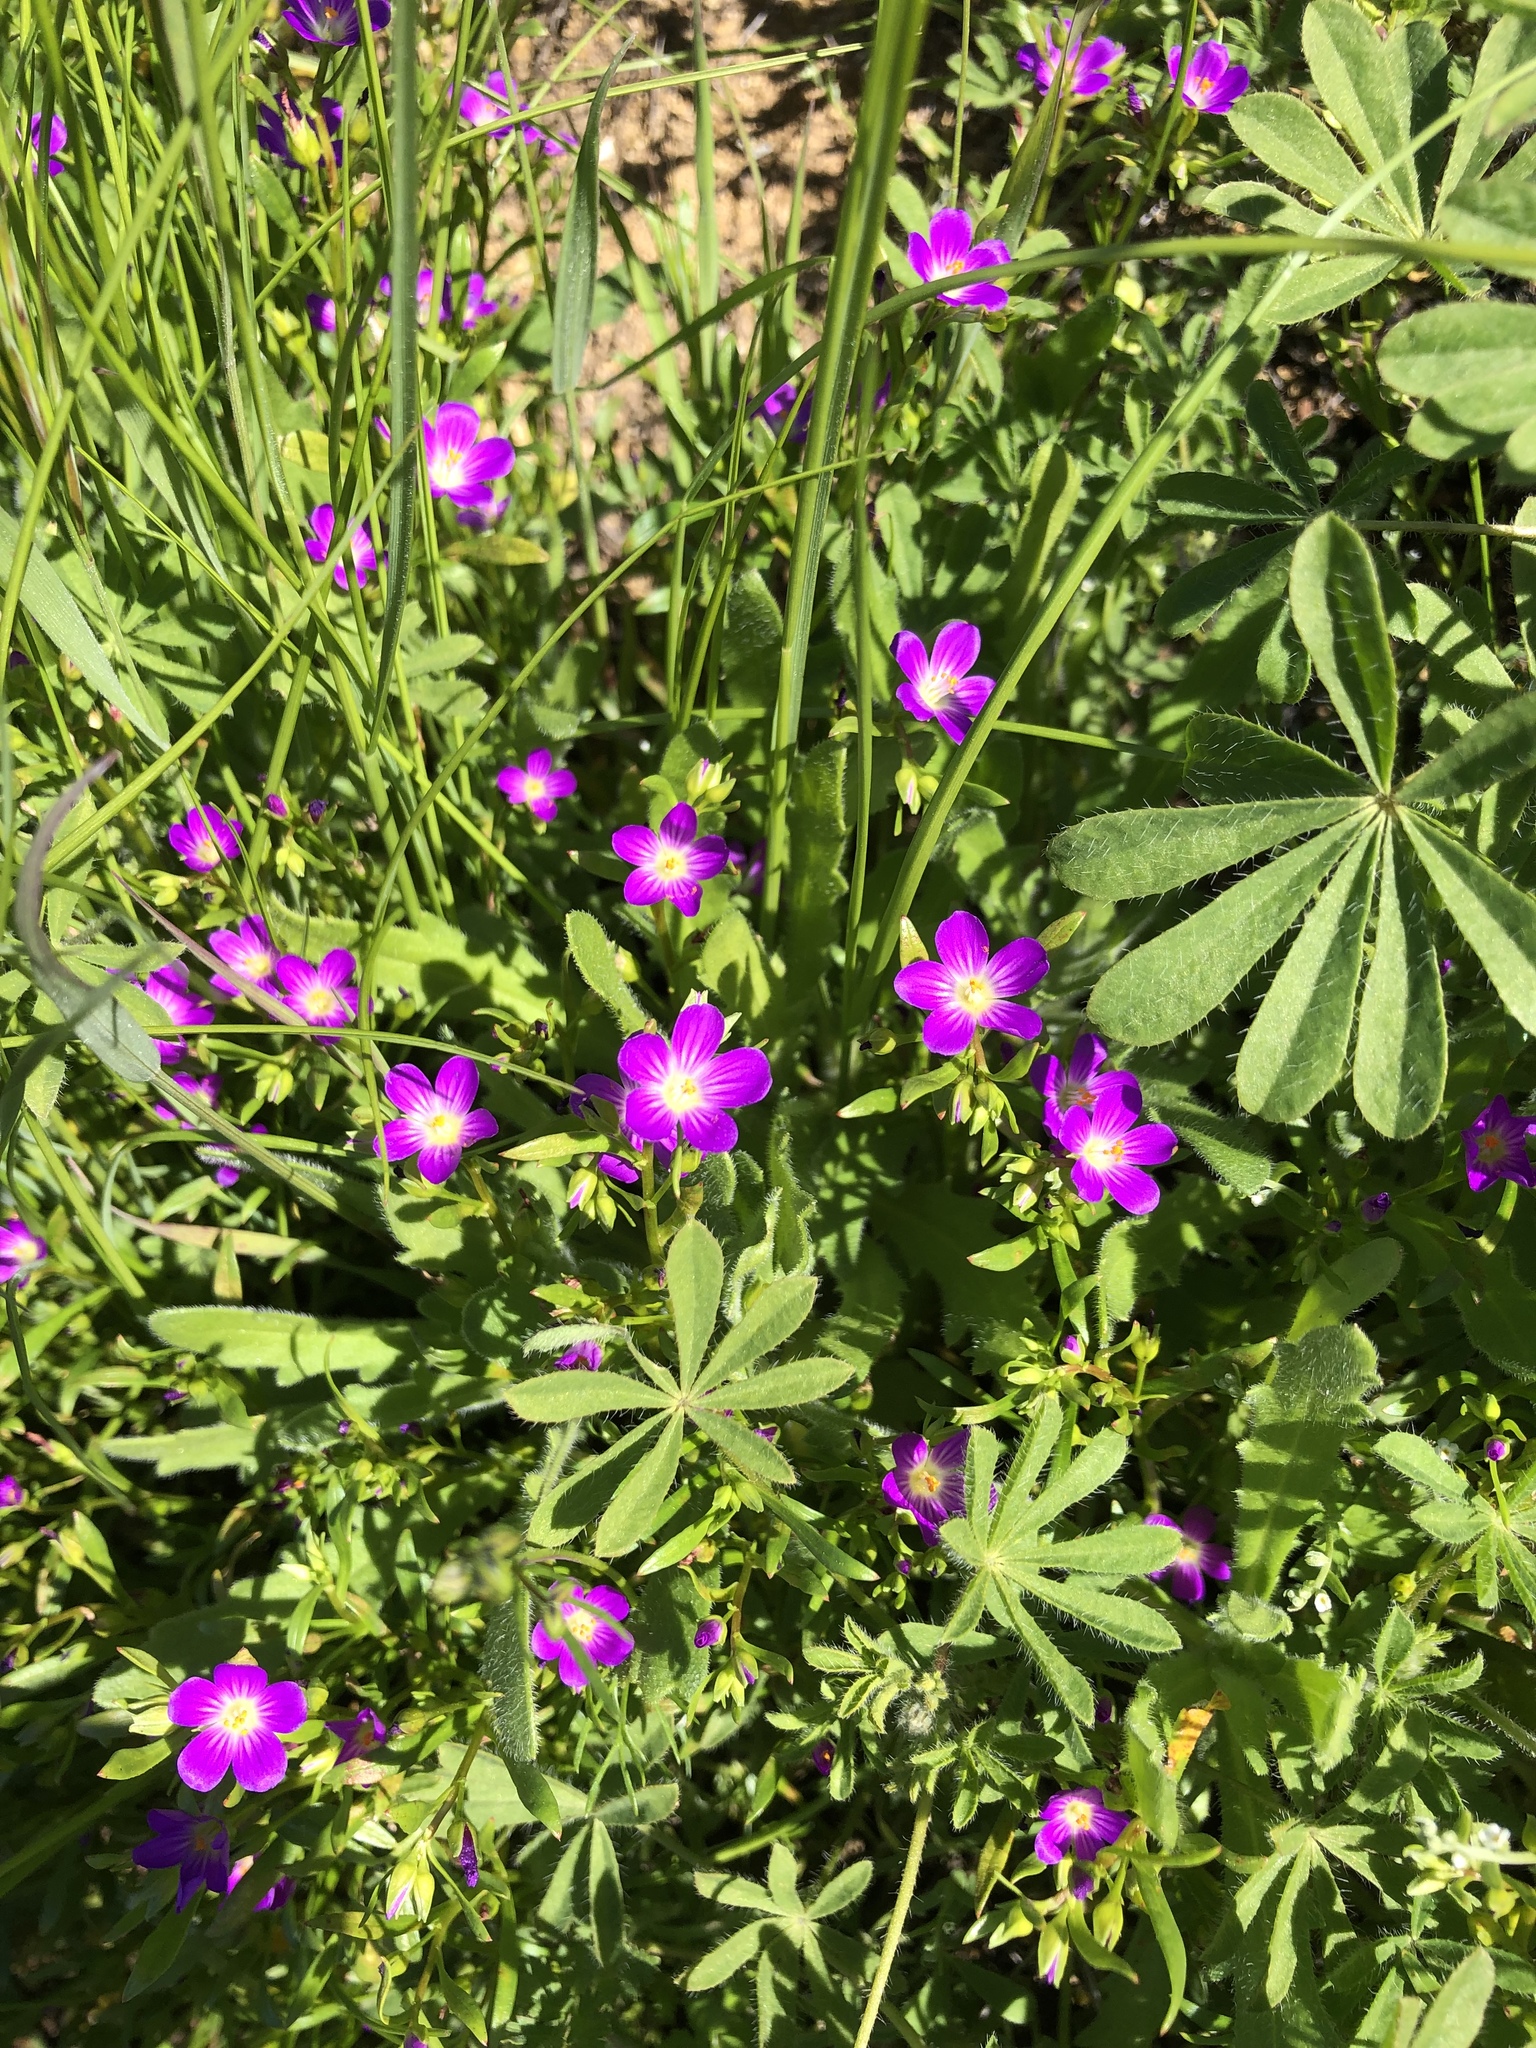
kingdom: Plantae
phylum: Tracheophyta
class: Magnoliopsida
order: Caryophyllales
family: Montiaceae
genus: Calandrinia
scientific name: Calandrinia menziesii
